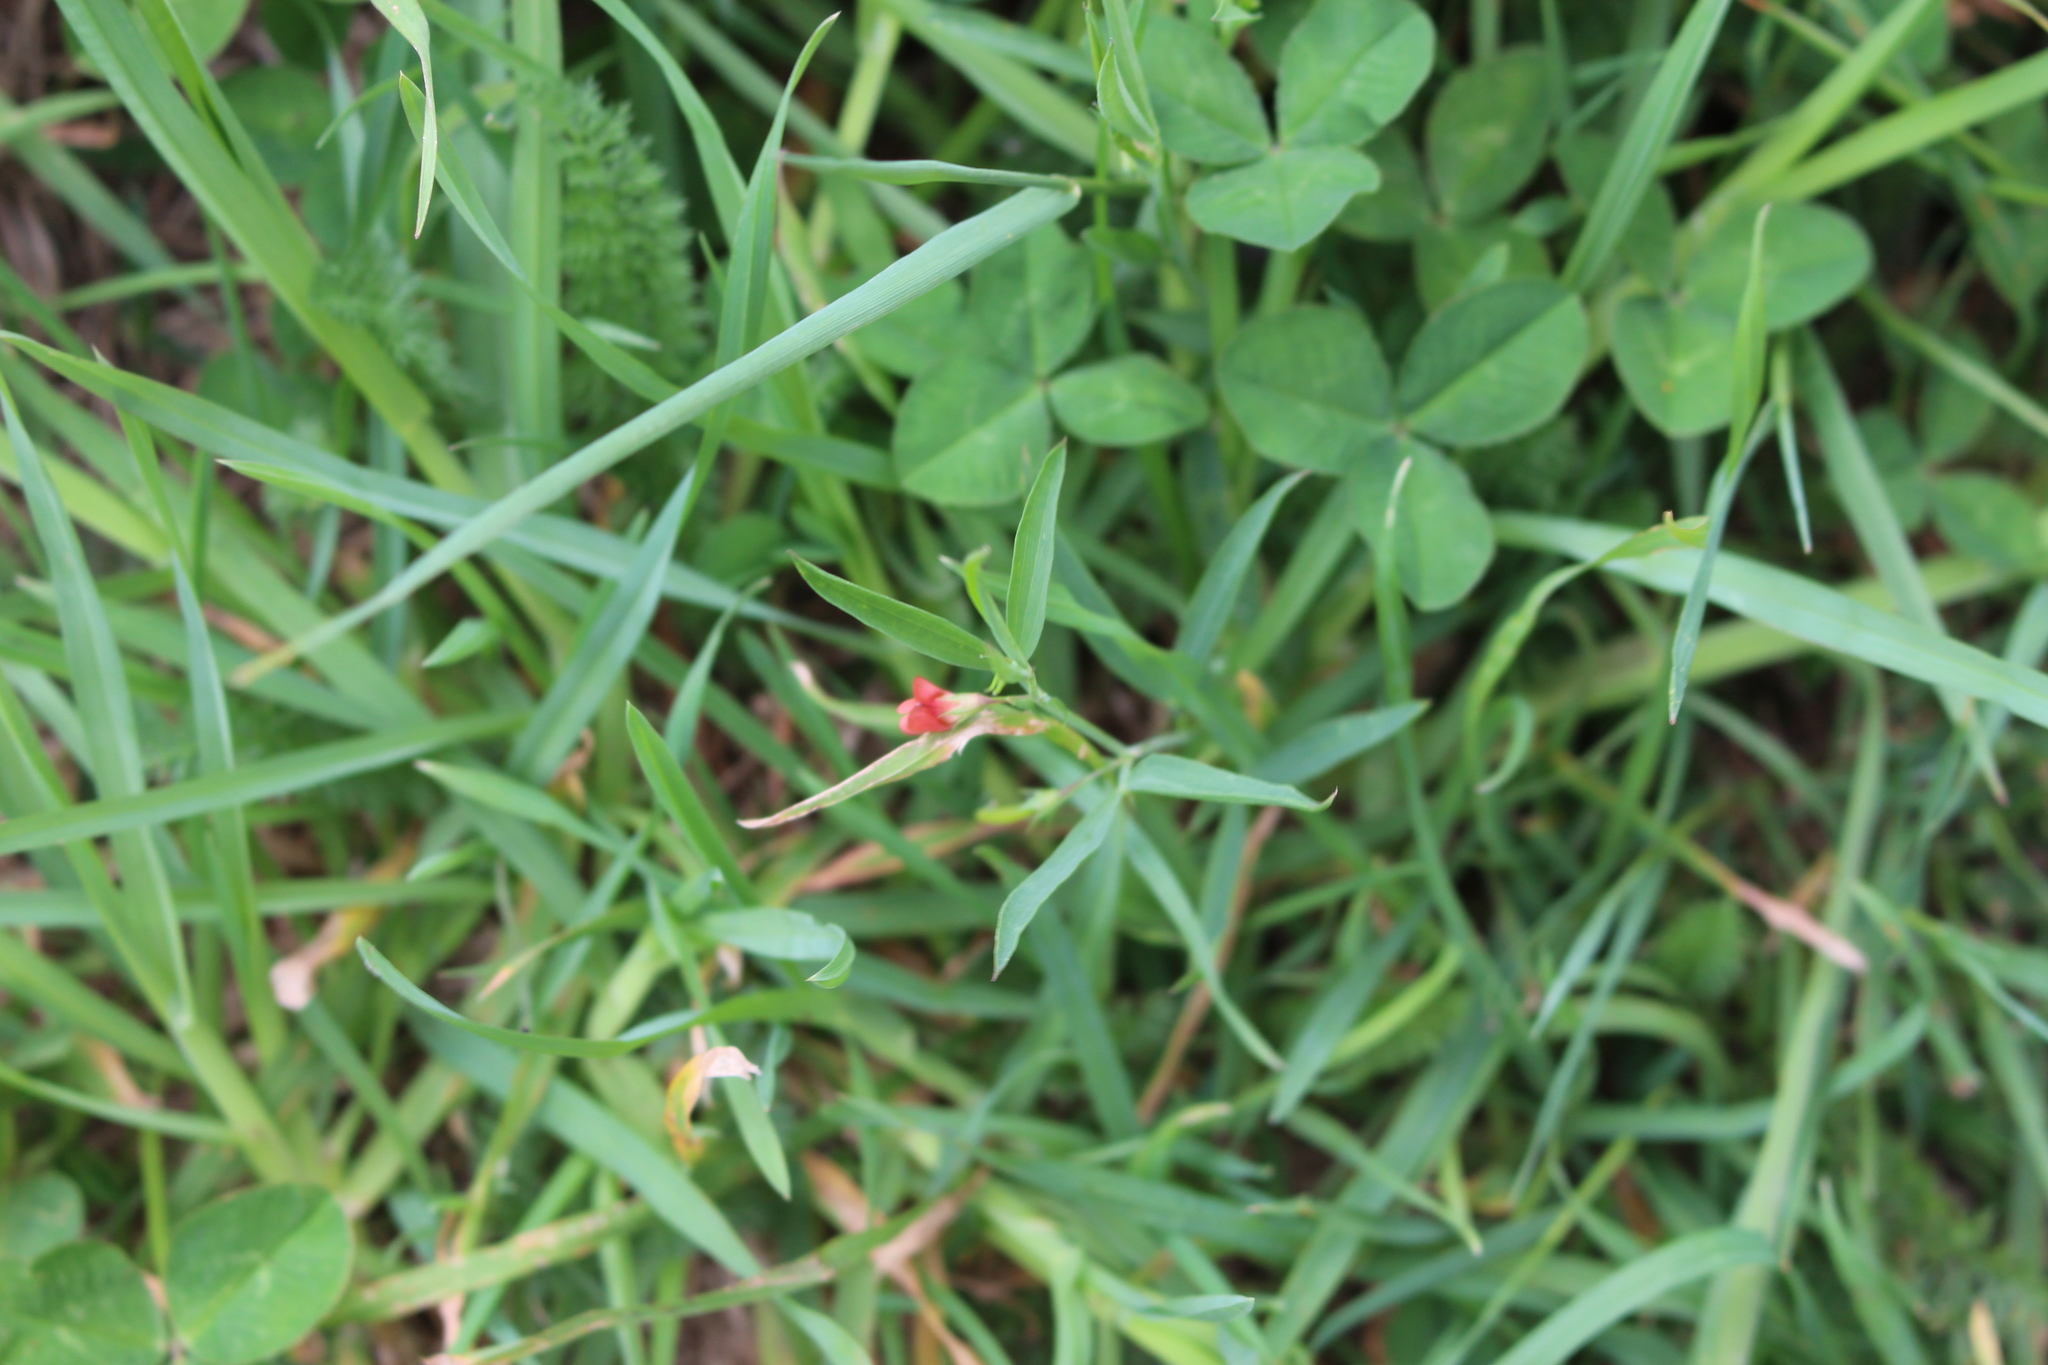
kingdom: Plantae
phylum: Tracheophyta
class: Magnoliopsida
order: Fabales
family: Fabaceae
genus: Lathyrus
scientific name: Lathyrus sphaericus
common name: Grass pea
